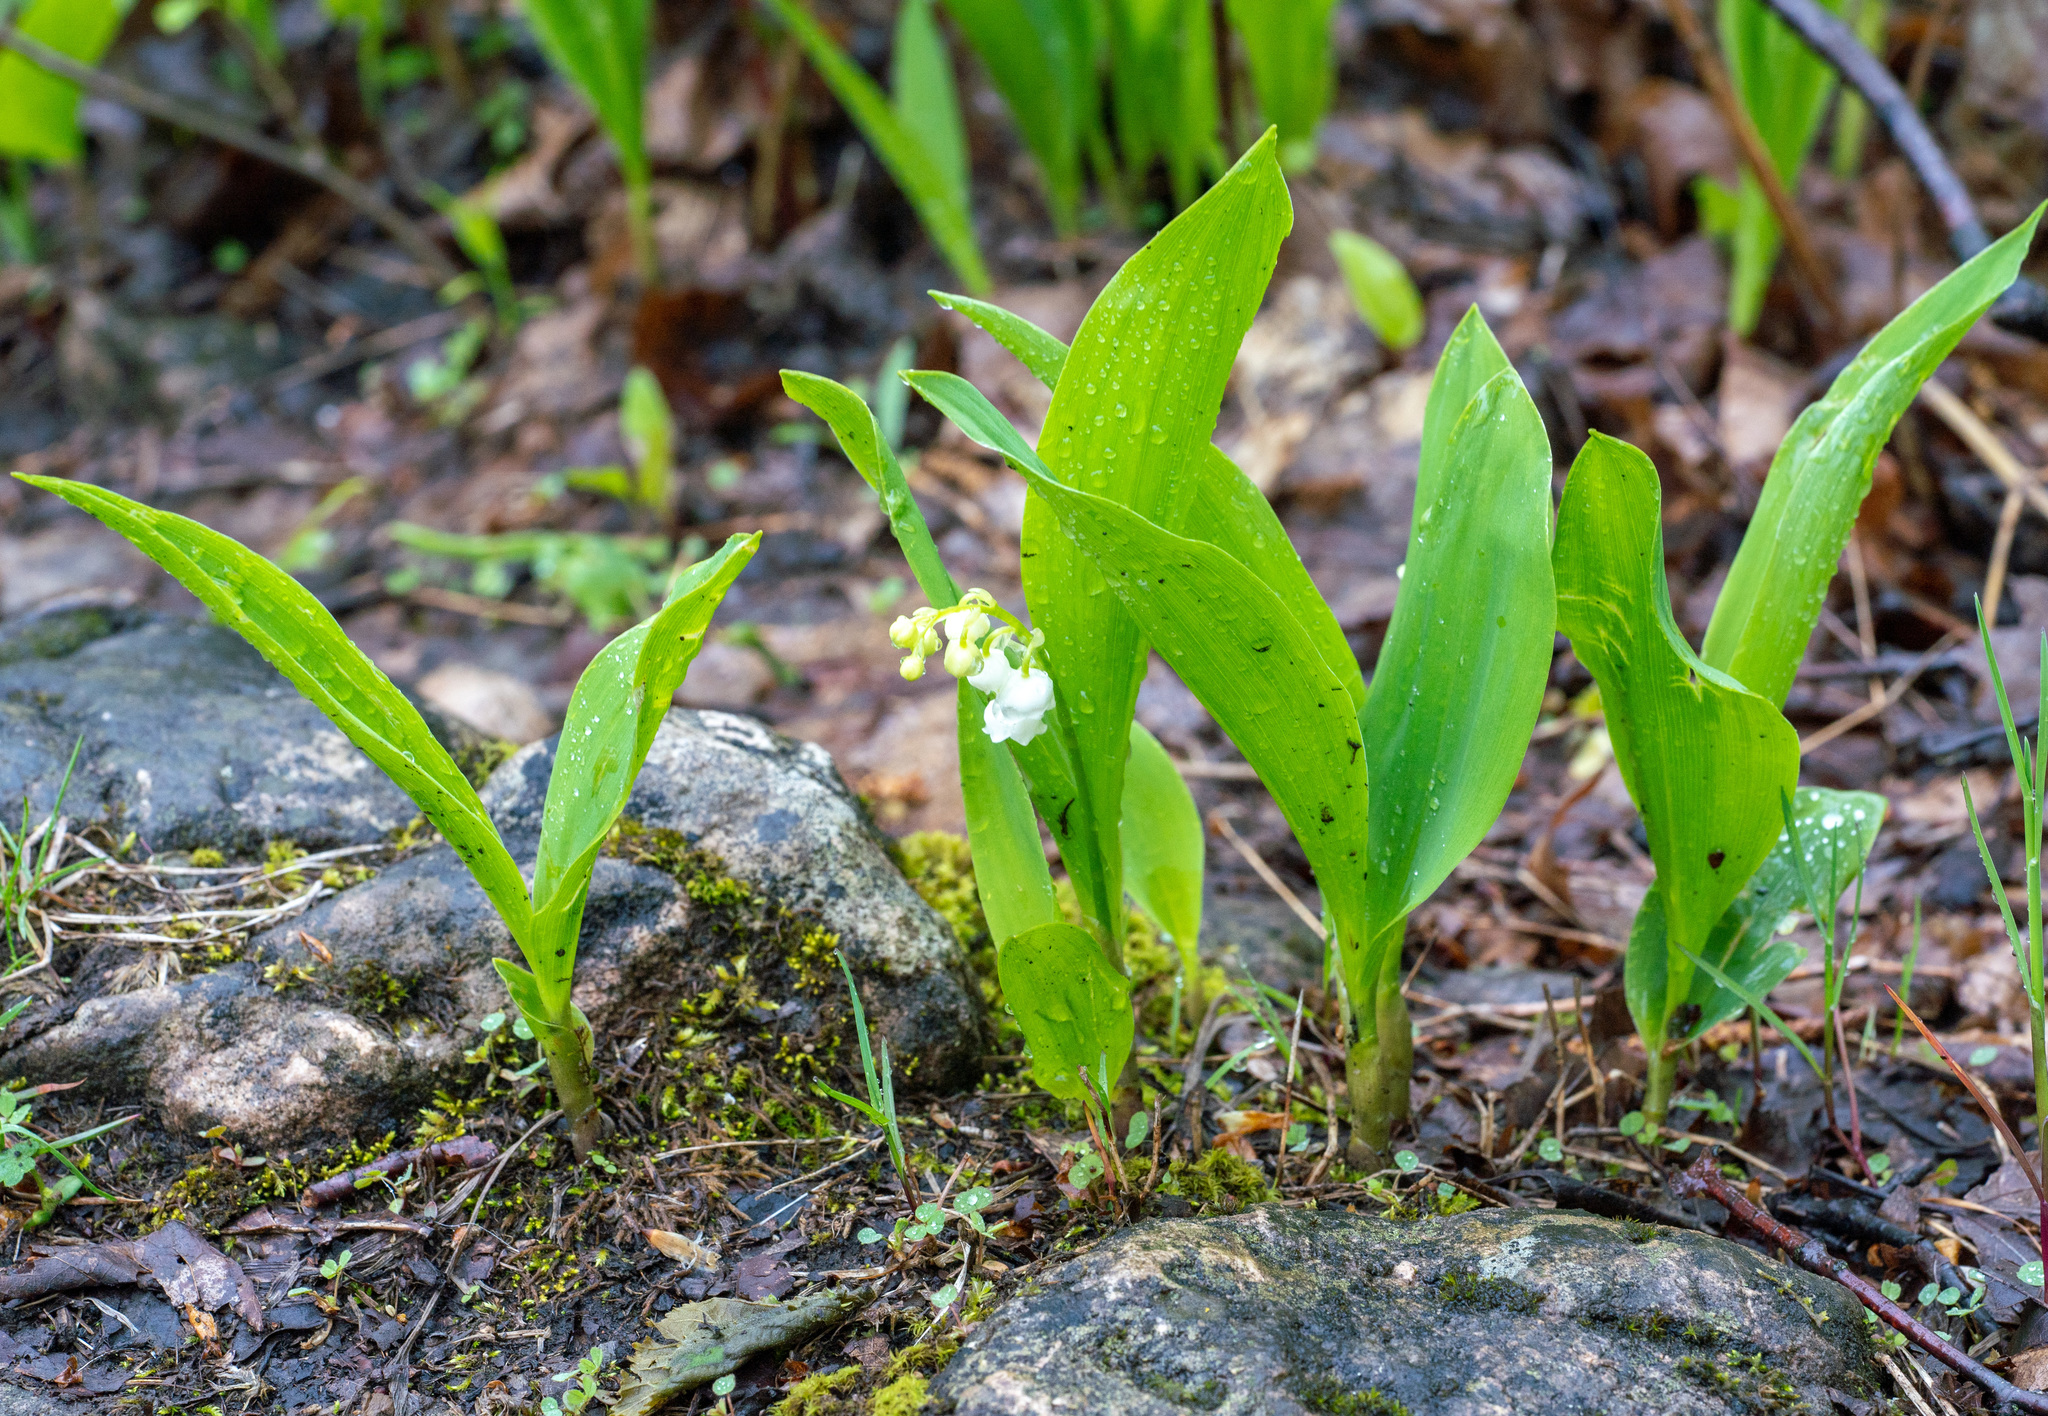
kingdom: Plantae
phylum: Tracheophyta
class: Liliopsida
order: Asparagales
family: Asparagaceae
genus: Convallaria
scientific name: Convallaria majalis
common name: Lily-of-the-valley
